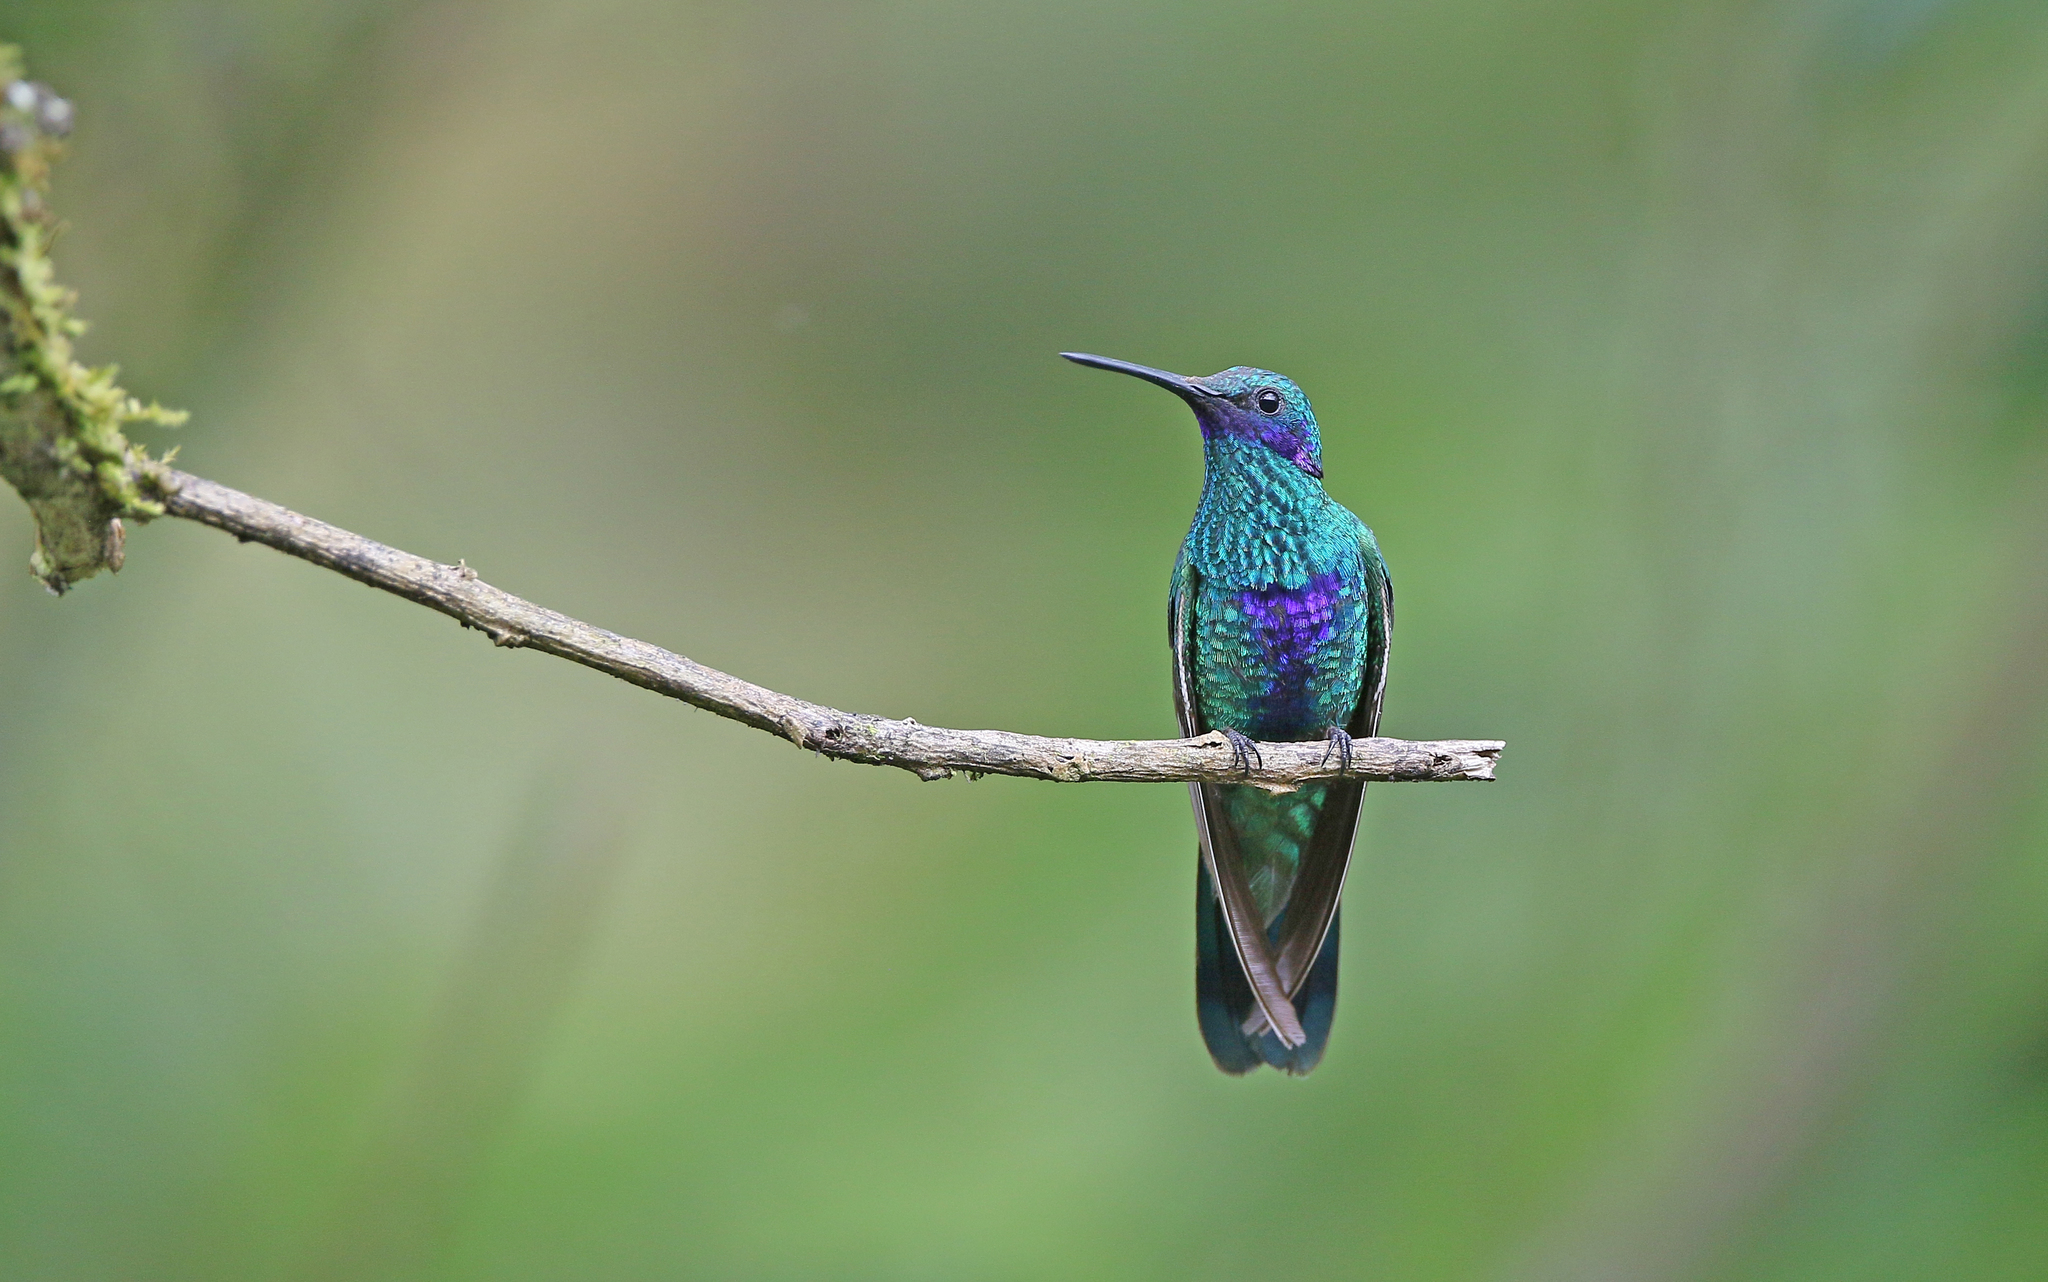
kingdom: Animalia
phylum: Chordata
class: Aves
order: Apodiformes
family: Trochilidae
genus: Colibri
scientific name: Colibri coruscans
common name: Sparkling violetear
